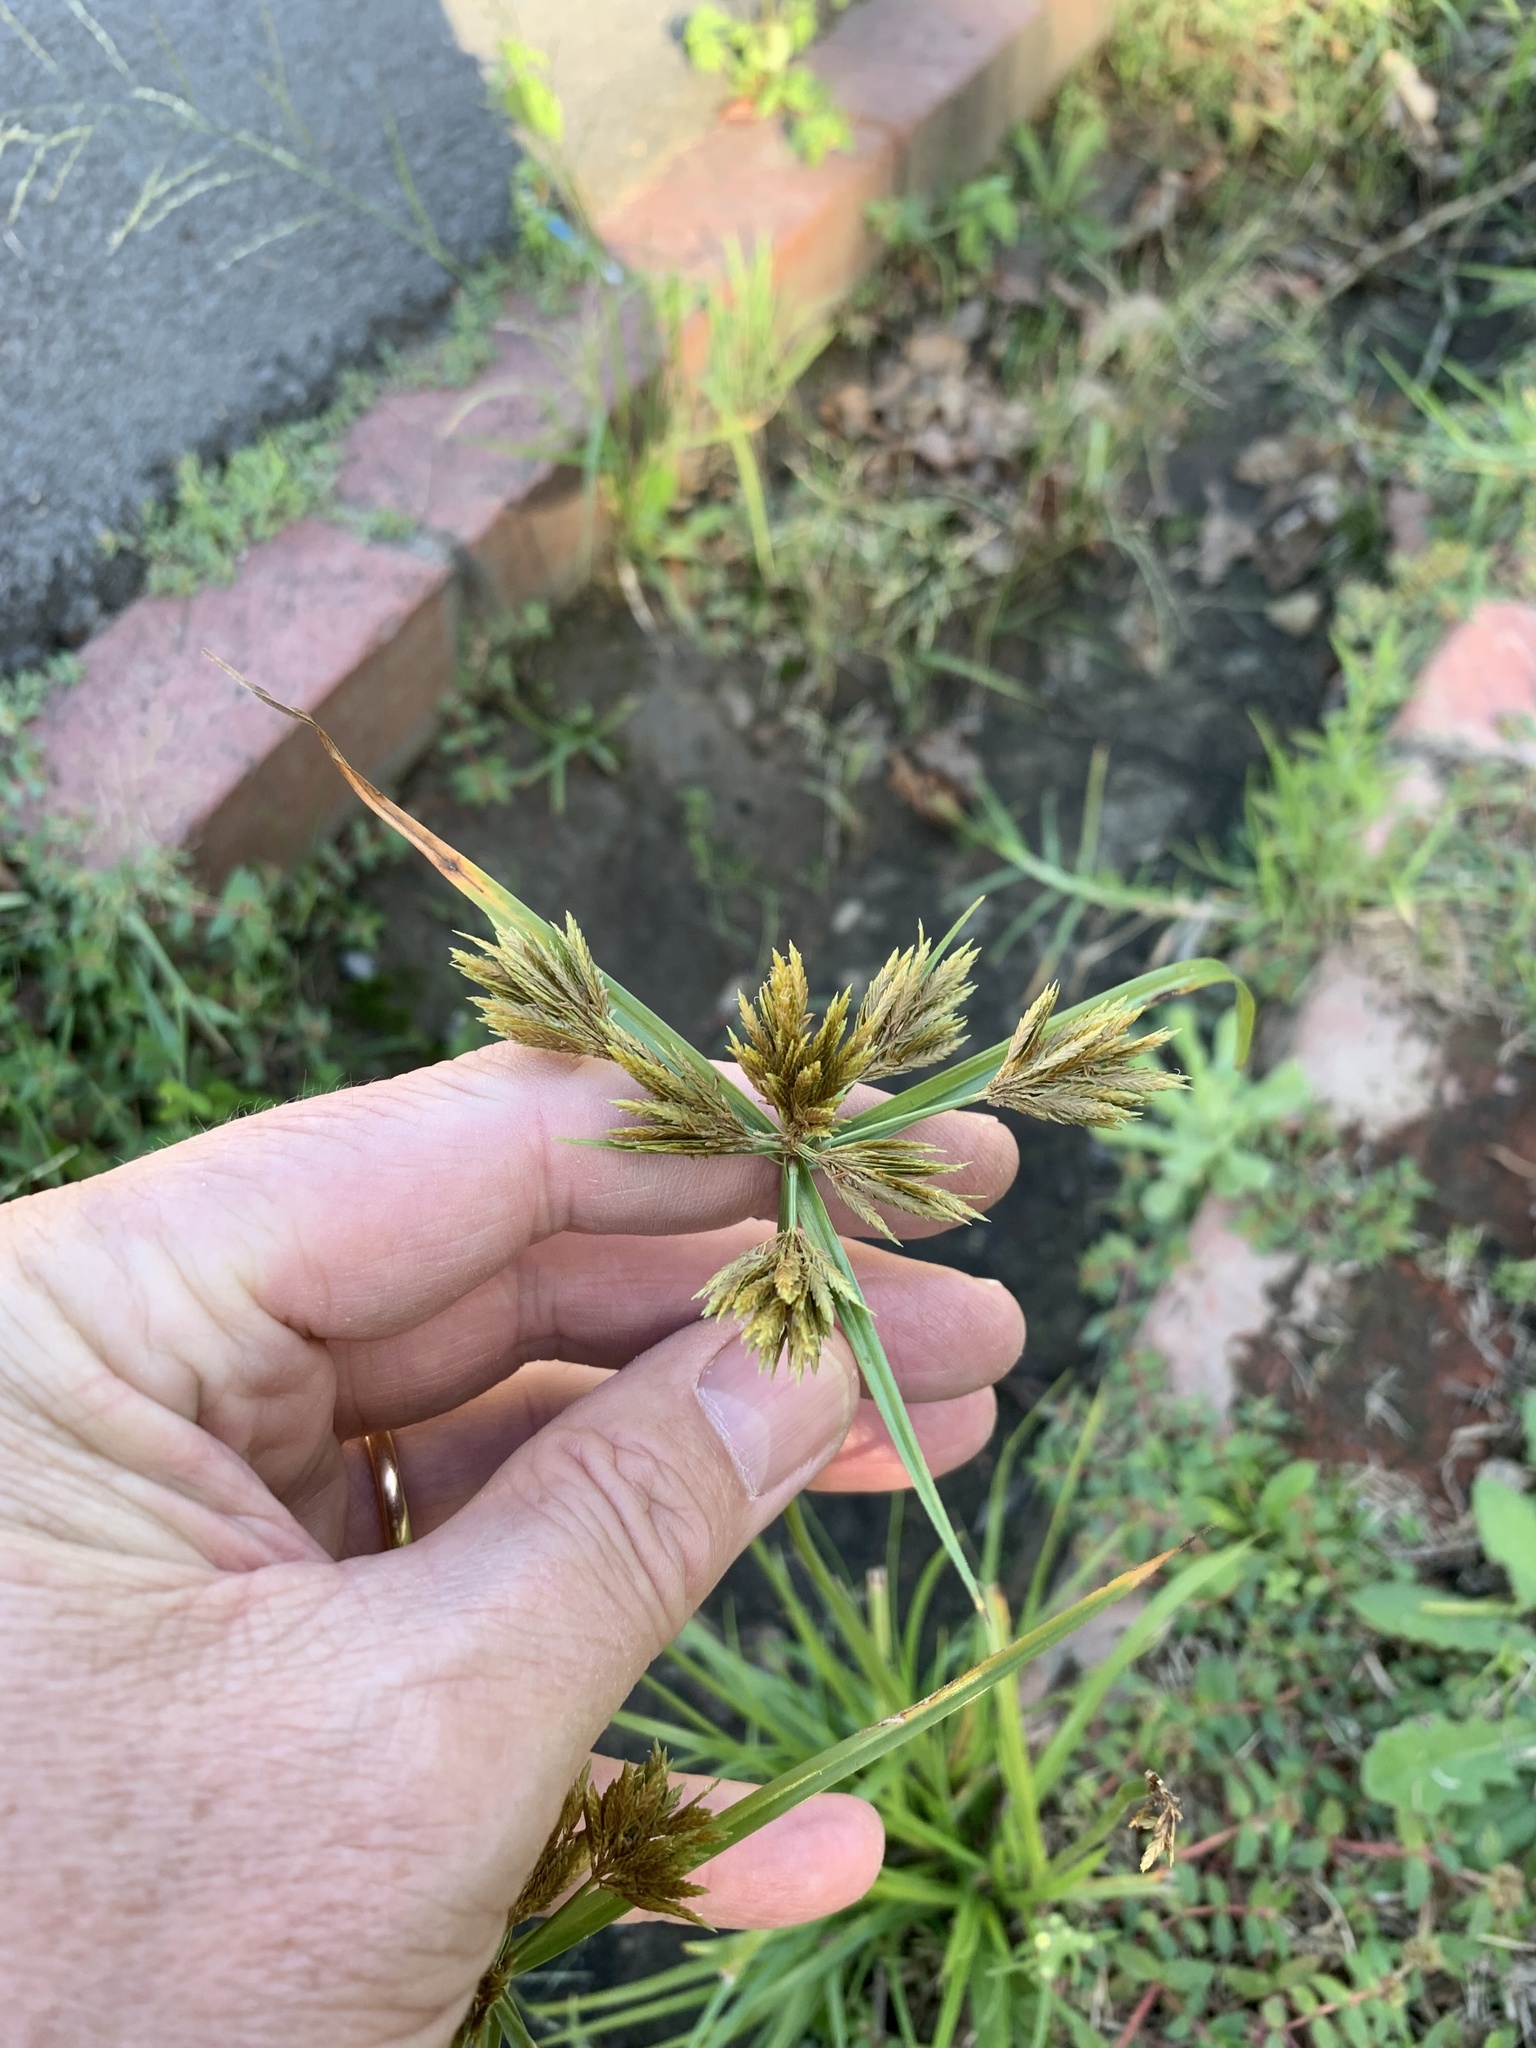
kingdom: Plantae
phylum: Tracheophyta
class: Liliopsida
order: Poales
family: Cyperaceae
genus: Cyperus
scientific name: Cyperus polystachyos
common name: Bunchy flat sedge
